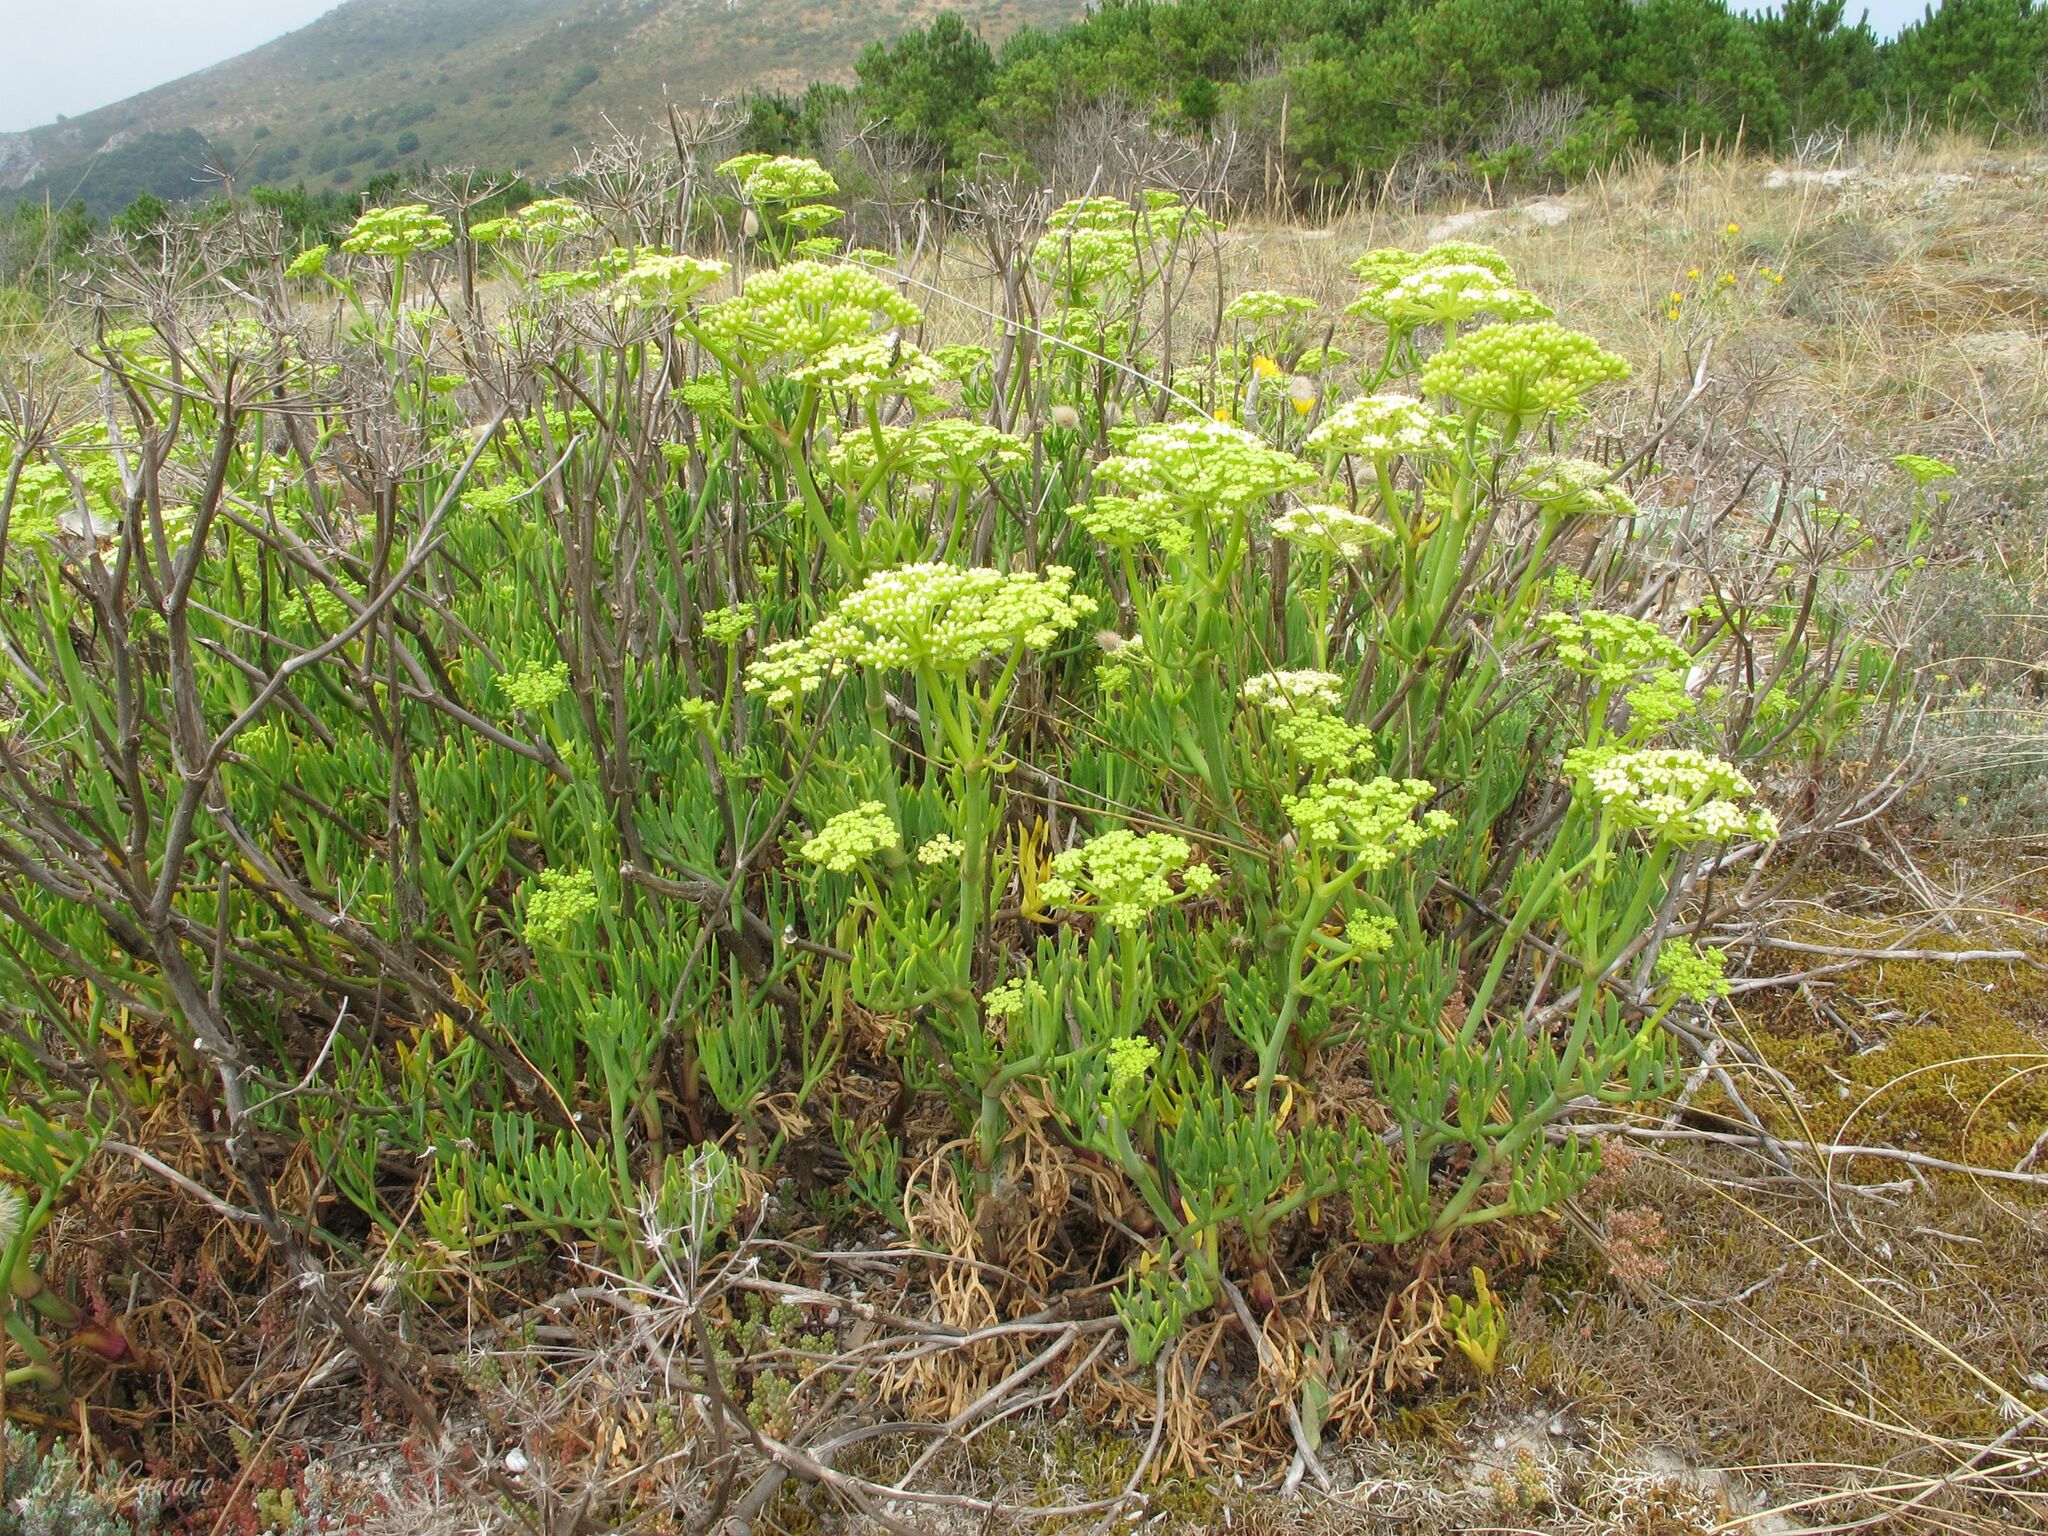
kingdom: Plantae
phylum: Tracheophyta
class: Magnoliopsida
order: Apiales
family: Apiaceae
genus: Crithmum
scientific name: Crithmum maritimum
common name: Rock samphire
